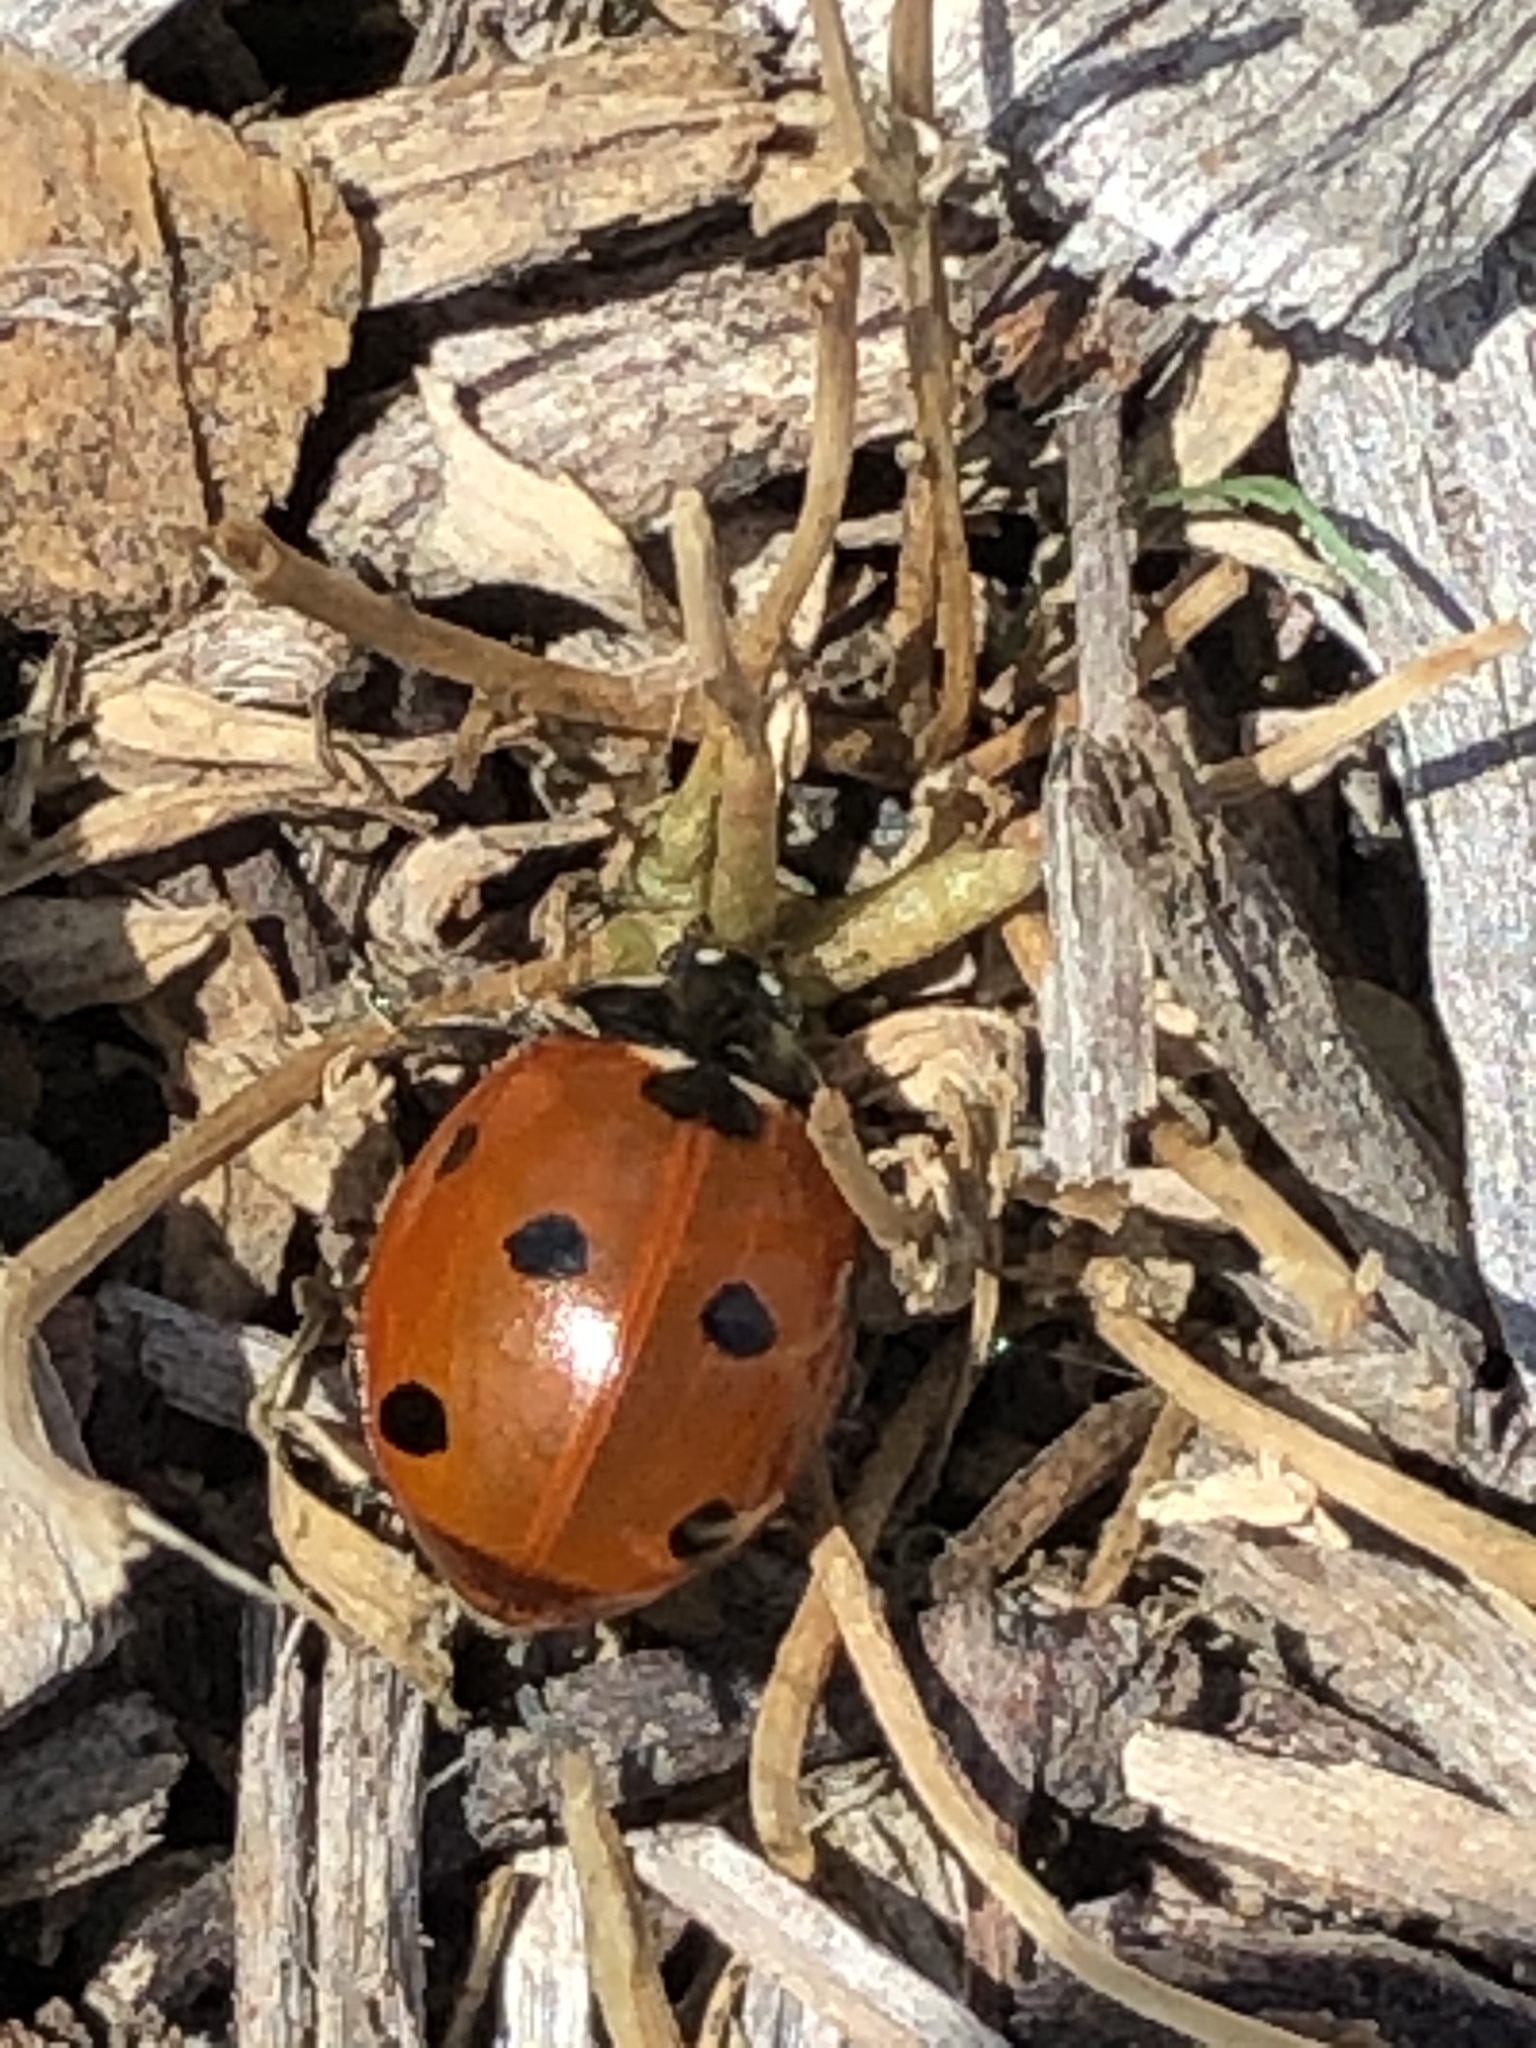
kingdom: Animalia
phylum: Arthropoda
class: Insecta
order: Coleoptera
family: Coccinellidae
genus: Coccinella
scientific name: Coccinella septempunctata
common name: Sevenspotted lady beetle
